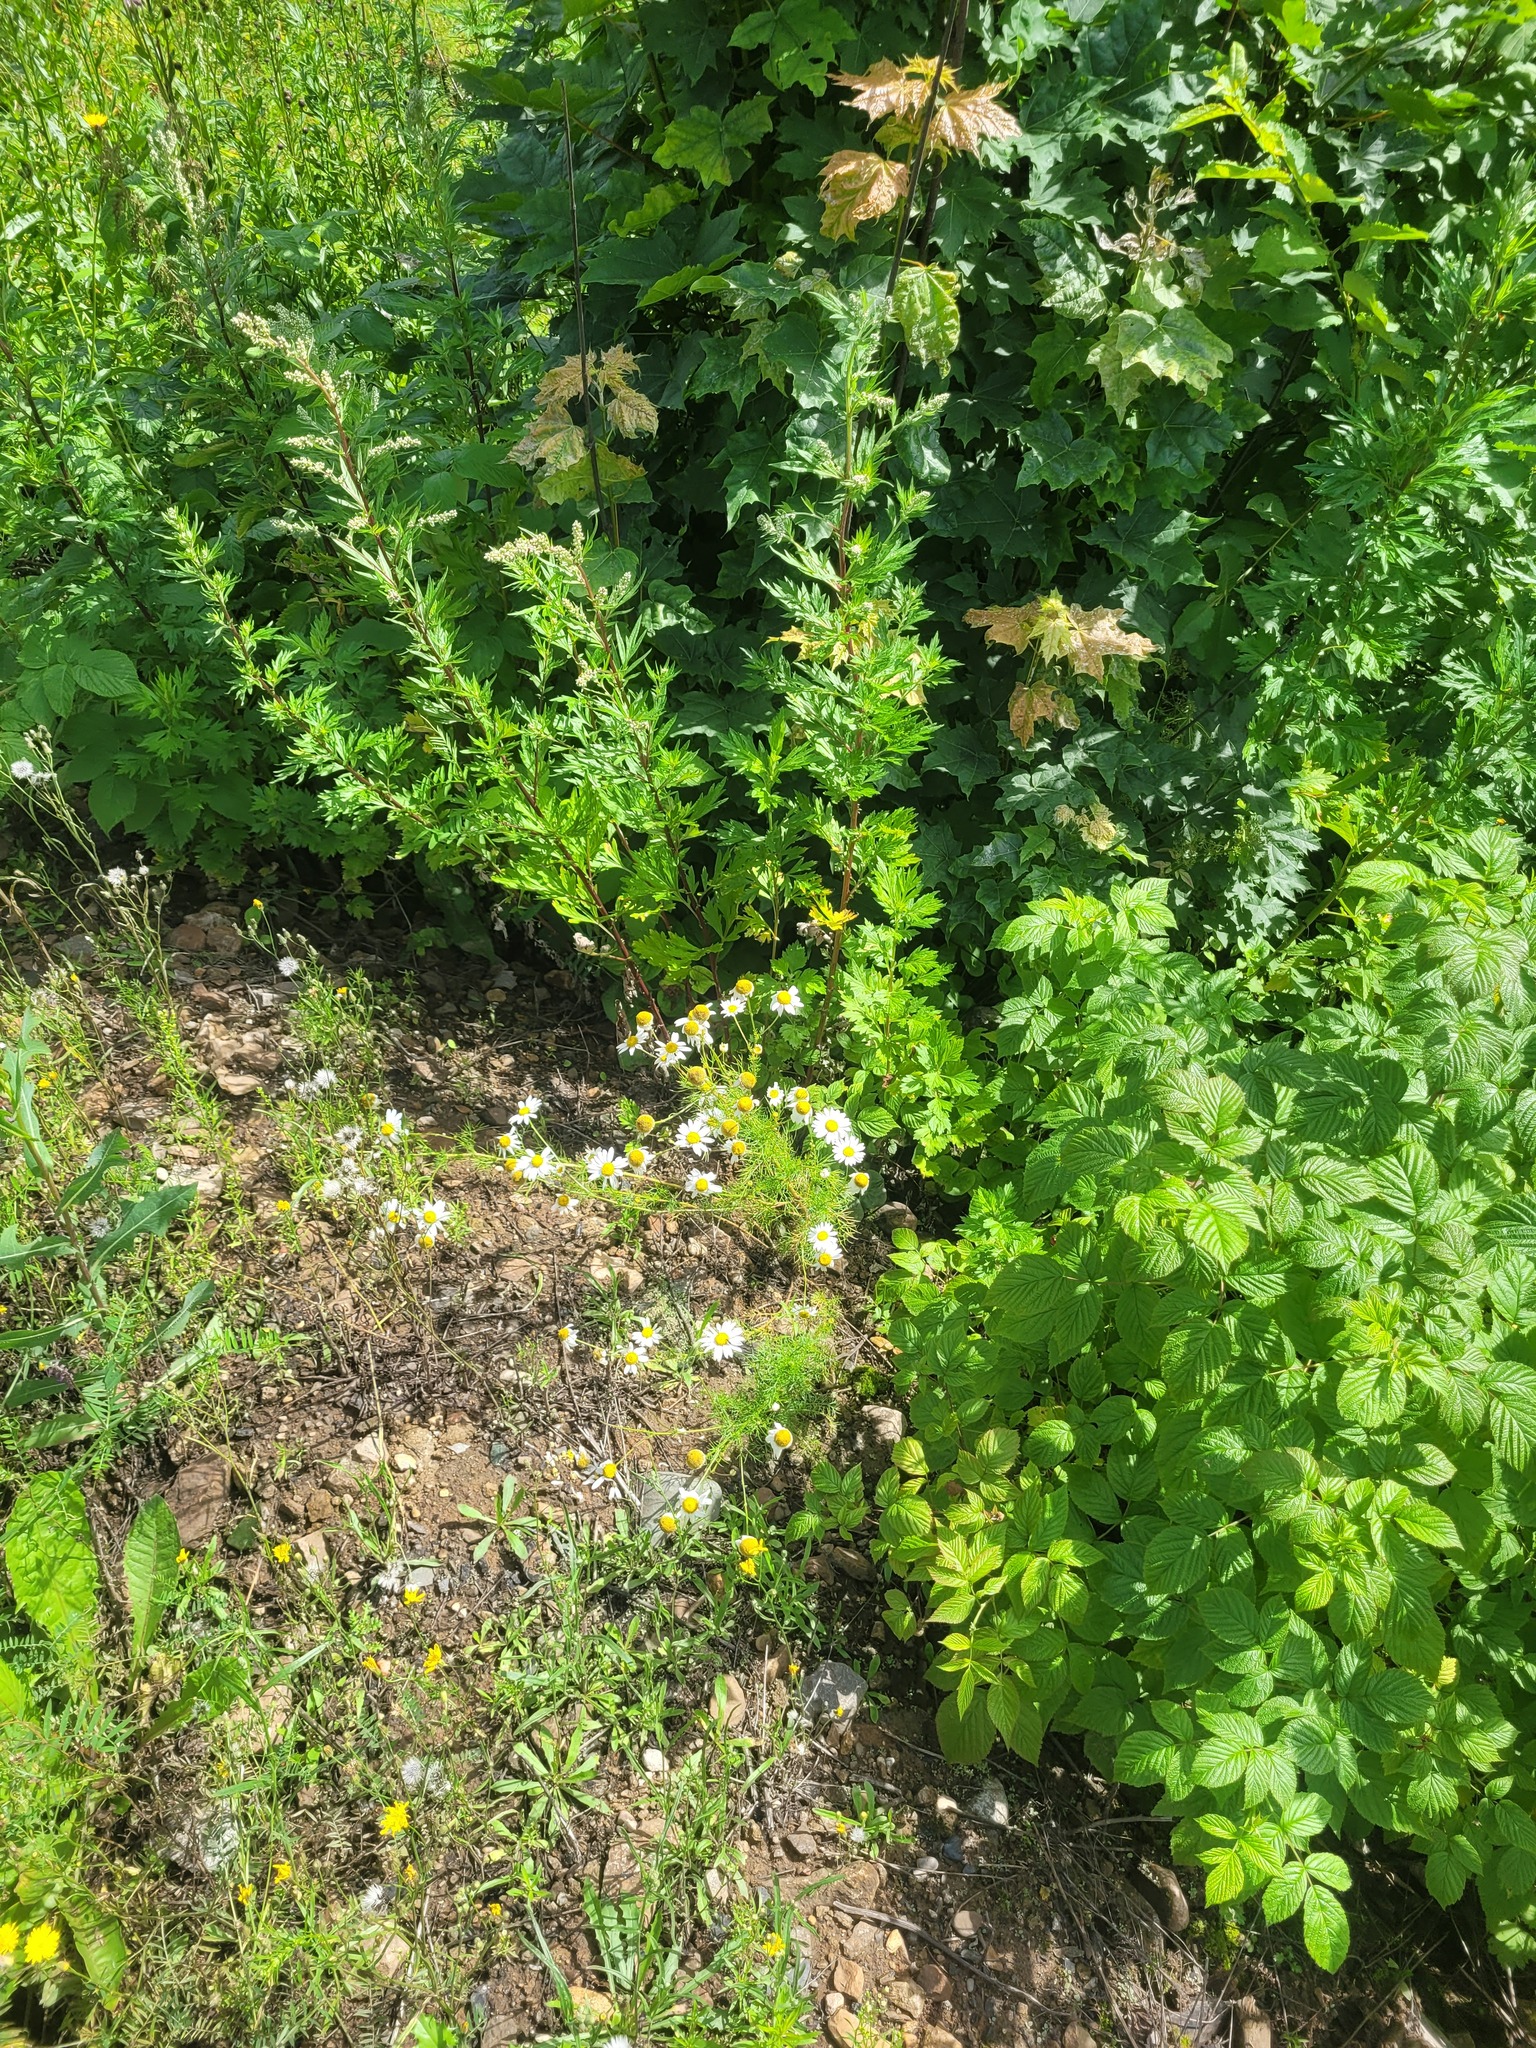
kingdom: Plantae
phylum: Tracheophyta
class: Magnoliopsida
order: Asterales
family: Asteraceae
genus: Tripleurospermum
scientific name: Tripleurospermum inodorum
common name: Scentless mayweed
